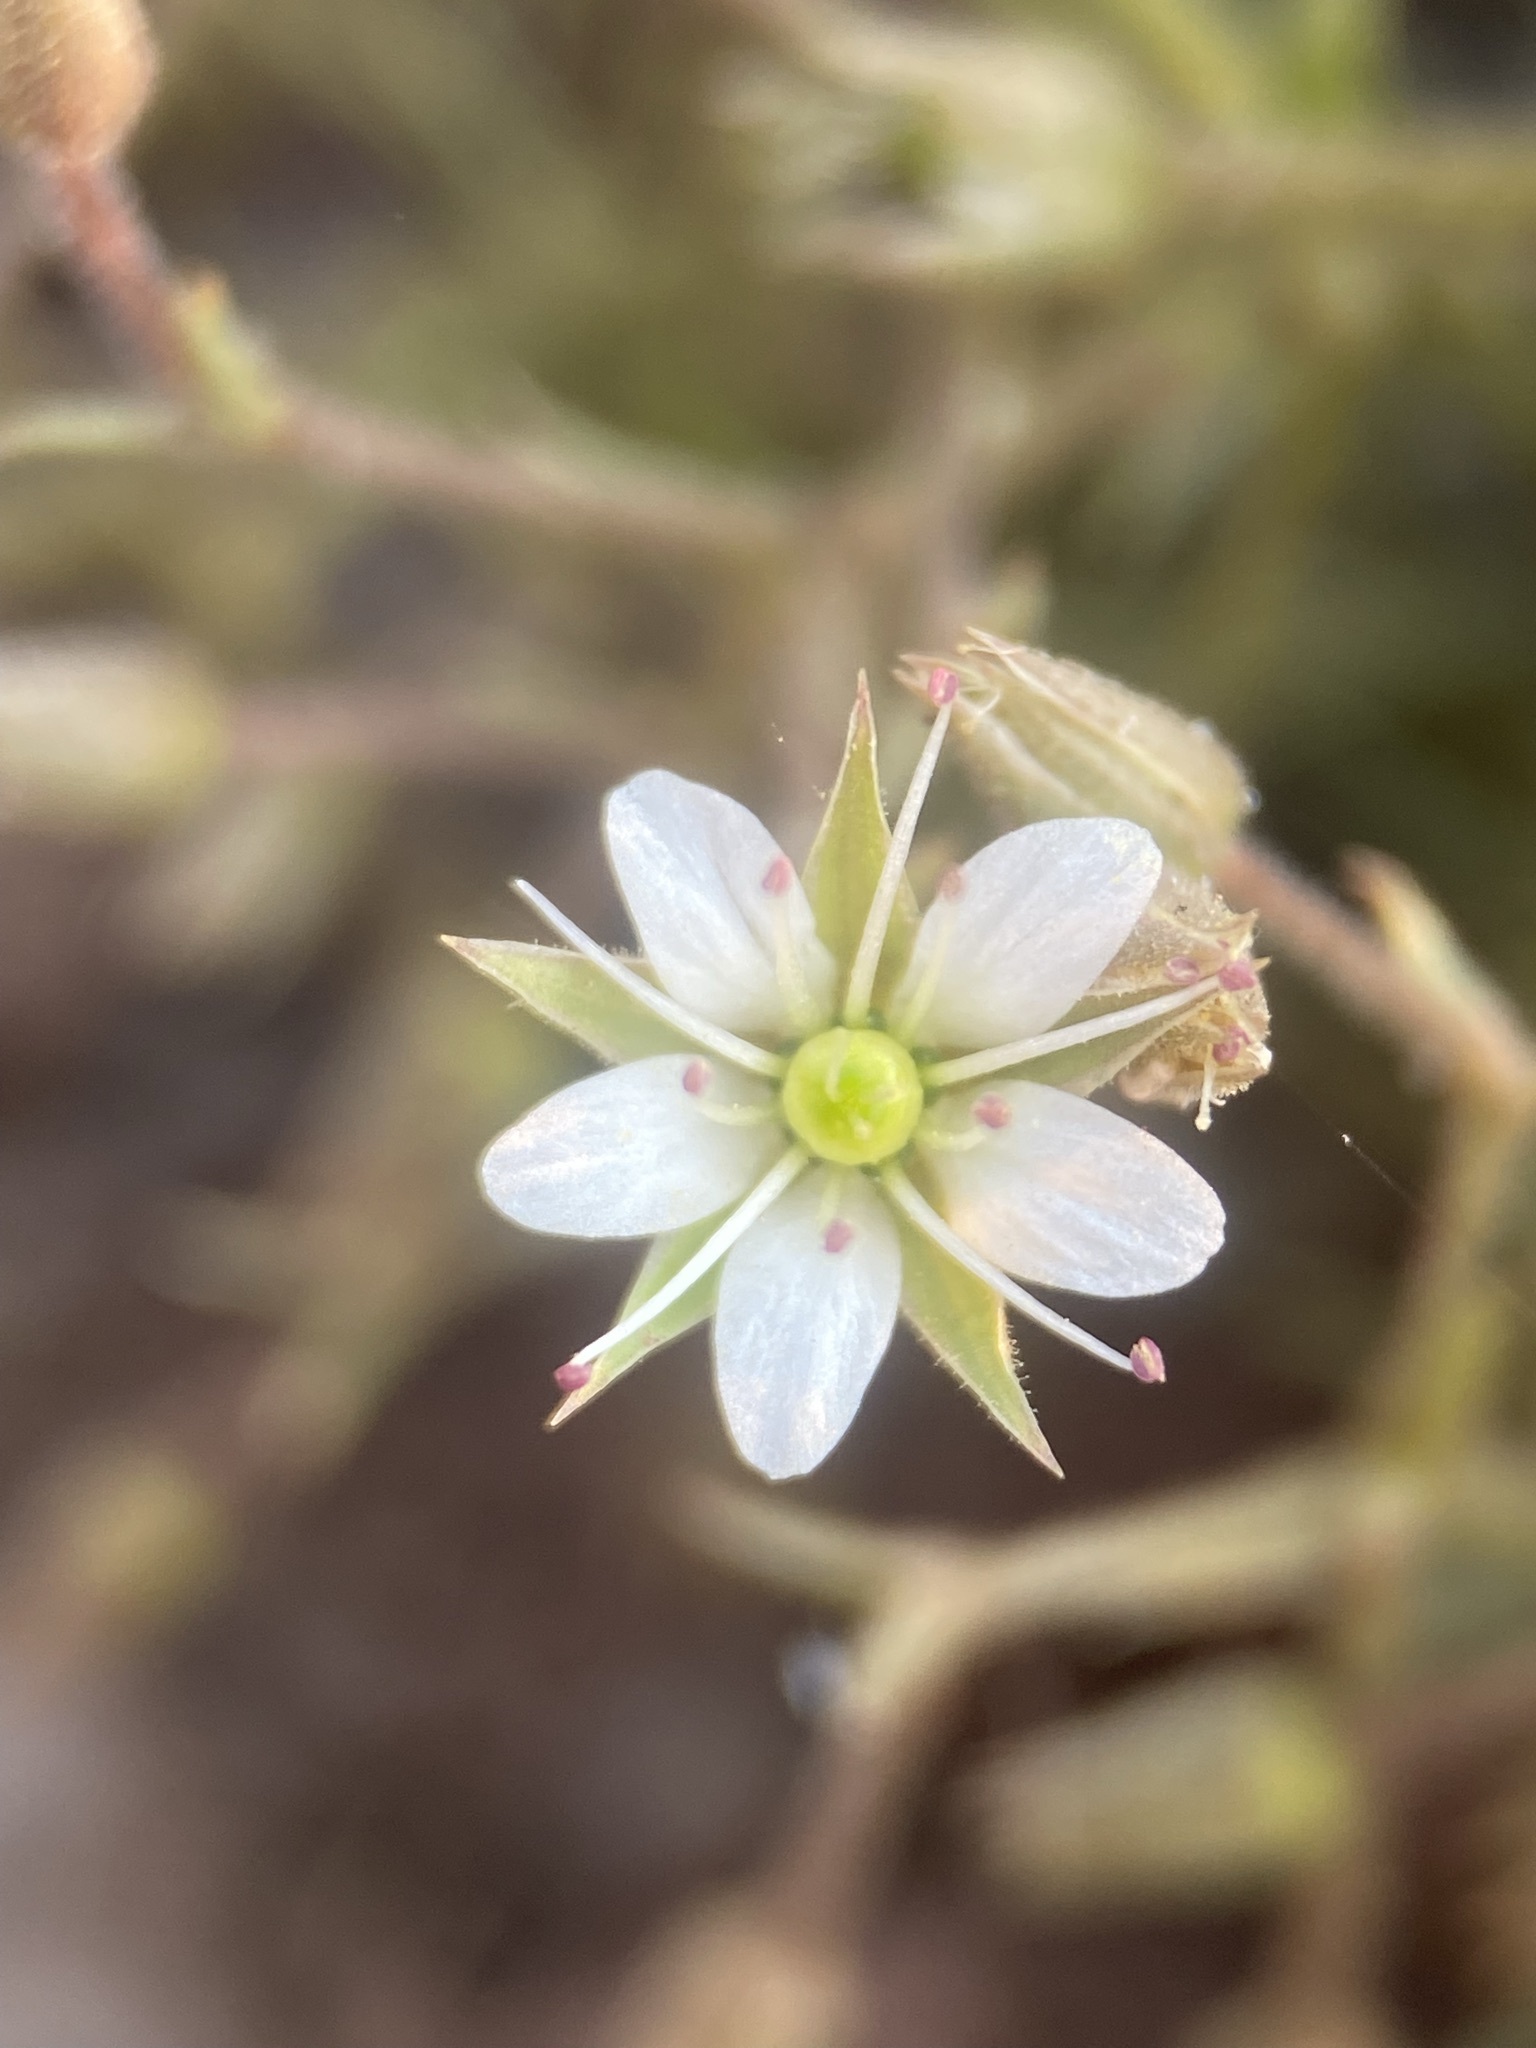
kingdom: Plantae
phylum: Tracheophyta
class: Magnoliopsida
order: Caryophyllales
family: Caryophyllaceae
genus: Sabulina
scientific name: Sabulina nuttallii
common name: Nuttall's stitchwort
